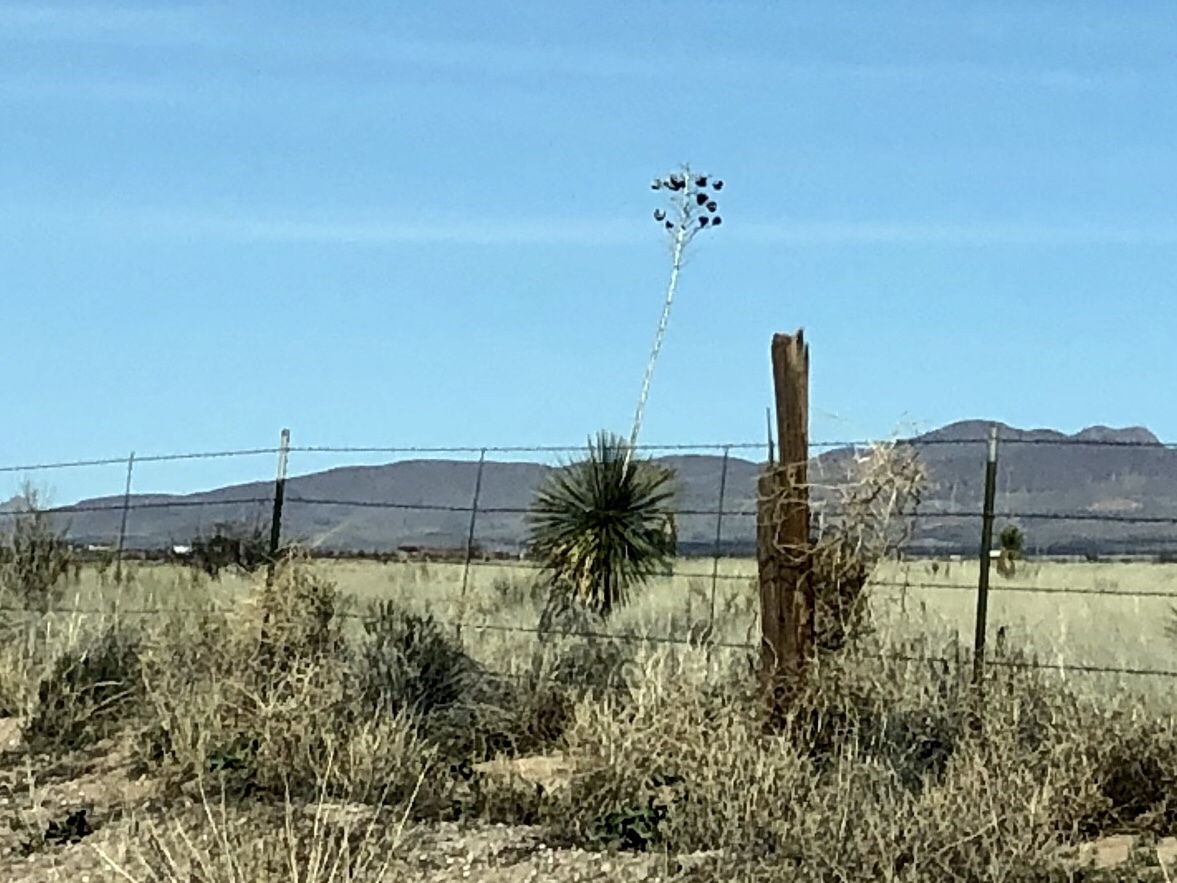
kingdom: Plantae
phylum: Tracheophyta
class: Liliopsida
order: Asparagales
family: Asparagaceae
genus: Yucca
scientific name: Yucca elata
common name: Palmella
